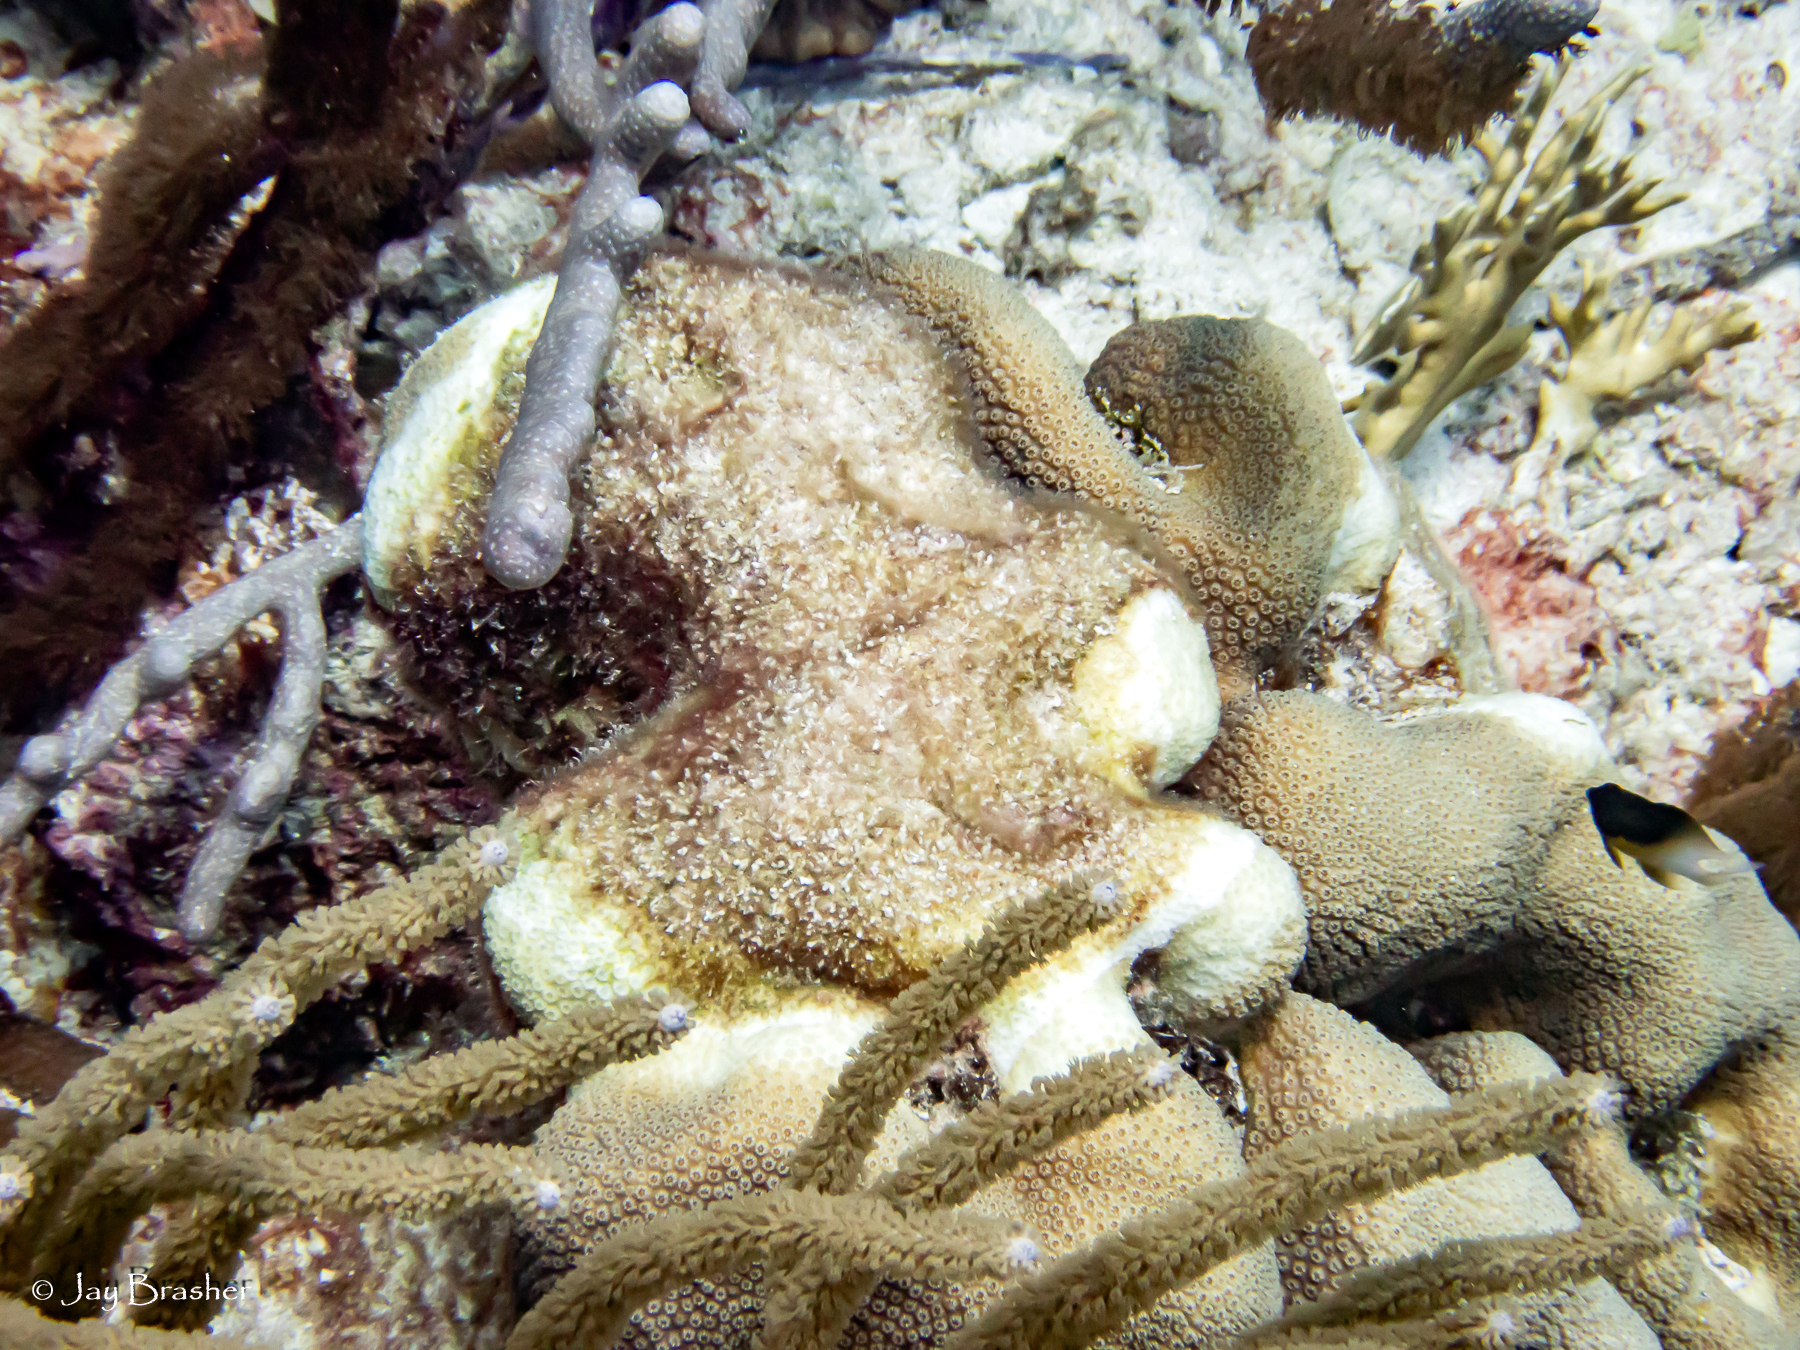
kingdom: Animalia
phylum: Cnidaria
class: Anthozoa
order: Scleractinia
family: Merulinidae
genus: Orbicella
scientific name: Orbicella annularis
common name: Boulder star coral
